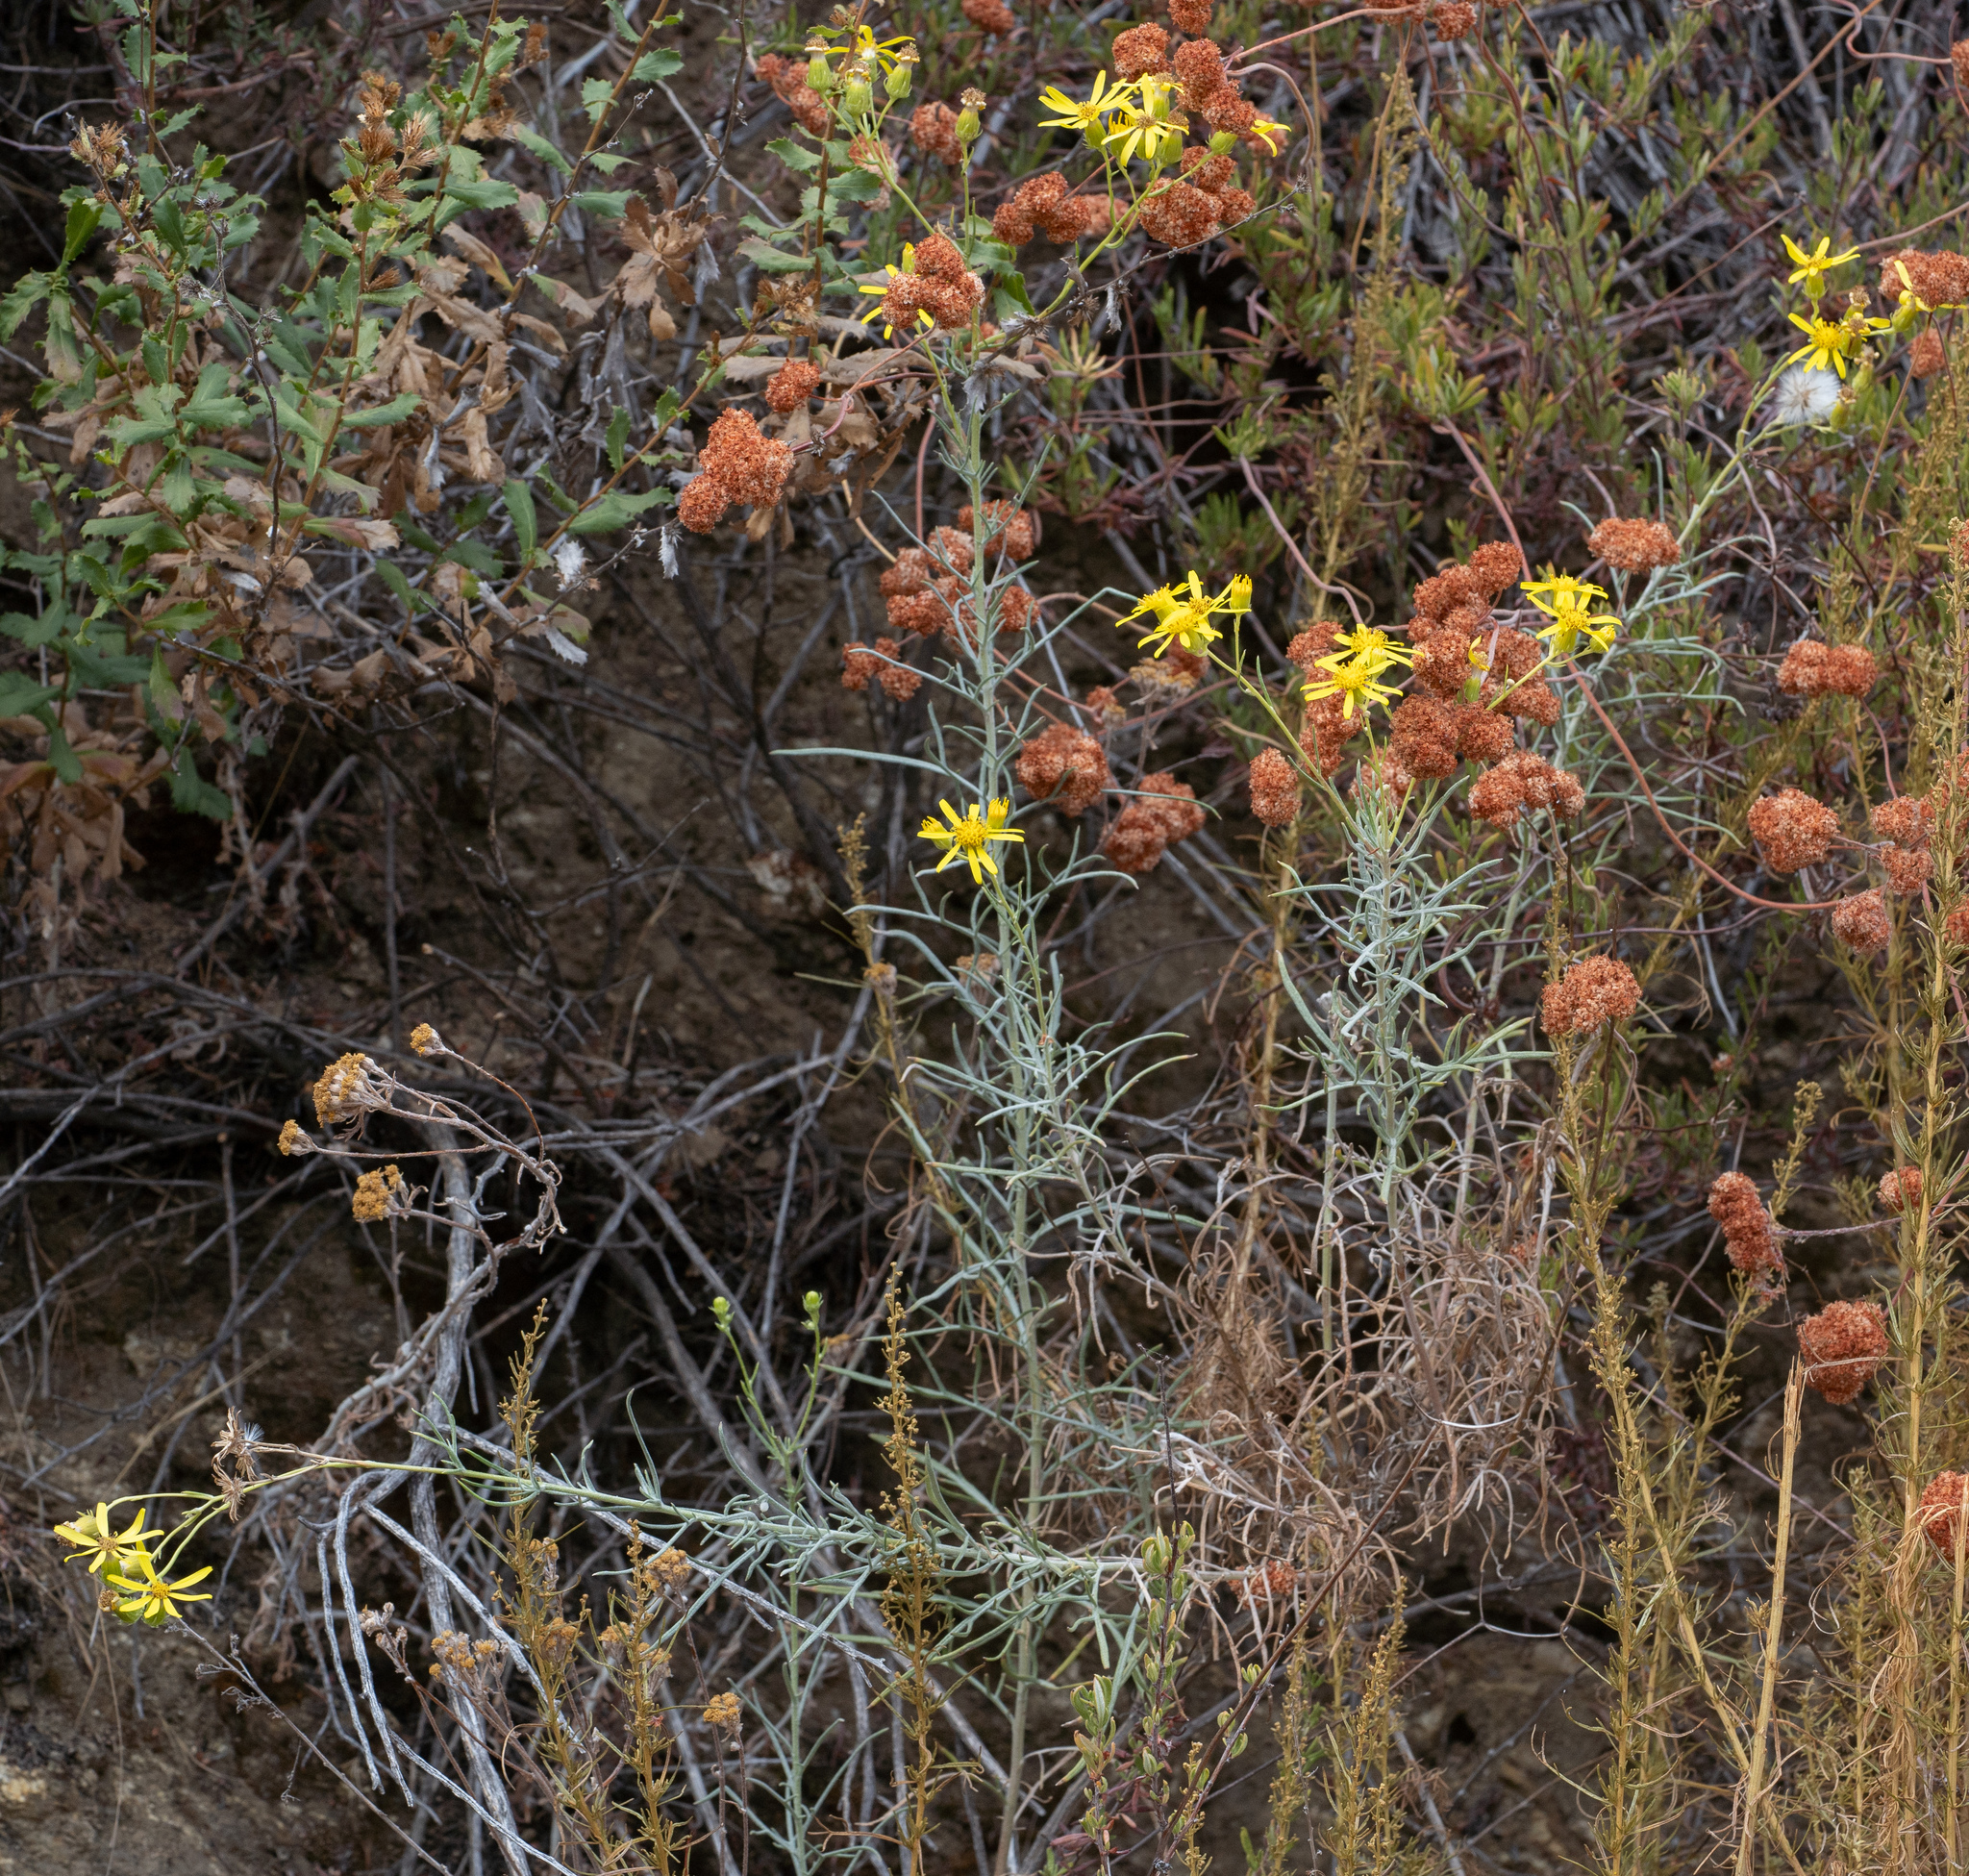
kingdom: Plantae
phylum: Tracheophyta
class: Magnoliopsida
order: Asterales
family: Asteraceae
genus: Senecio
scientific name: Senecio flaccidus
